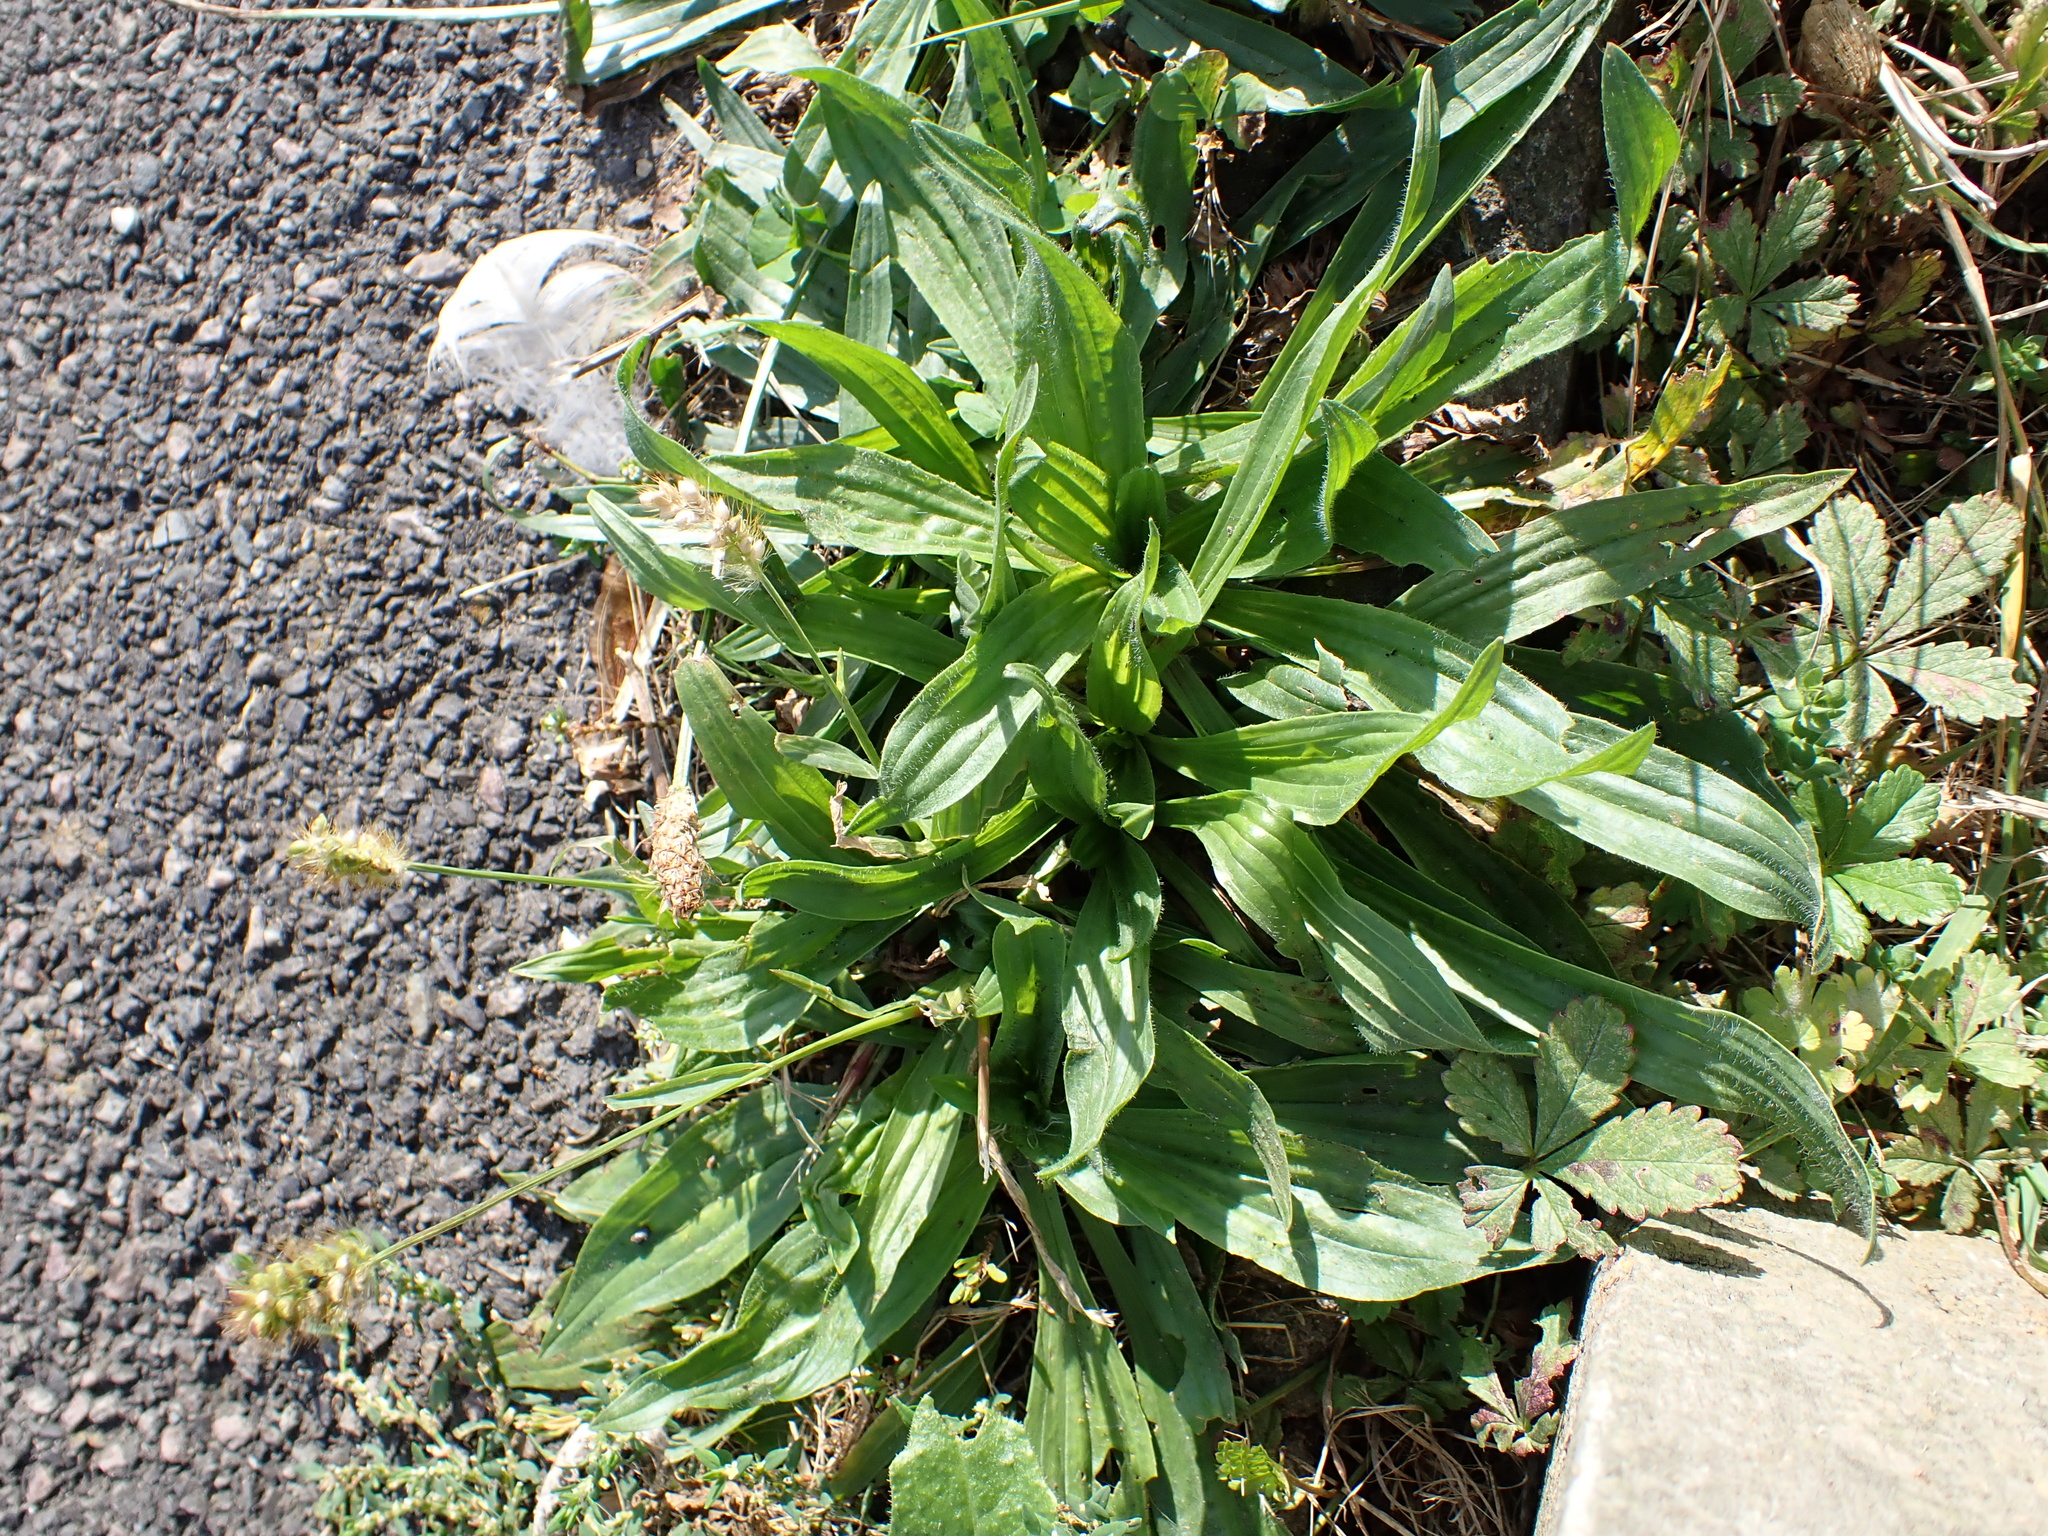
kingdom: Plantae
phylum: Tracheophyta
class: Magnoliopsida
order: Lamiales
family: Plantaginaceae
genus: Plantago
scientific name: Plantago lanceolata
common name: Ribwort plantain
